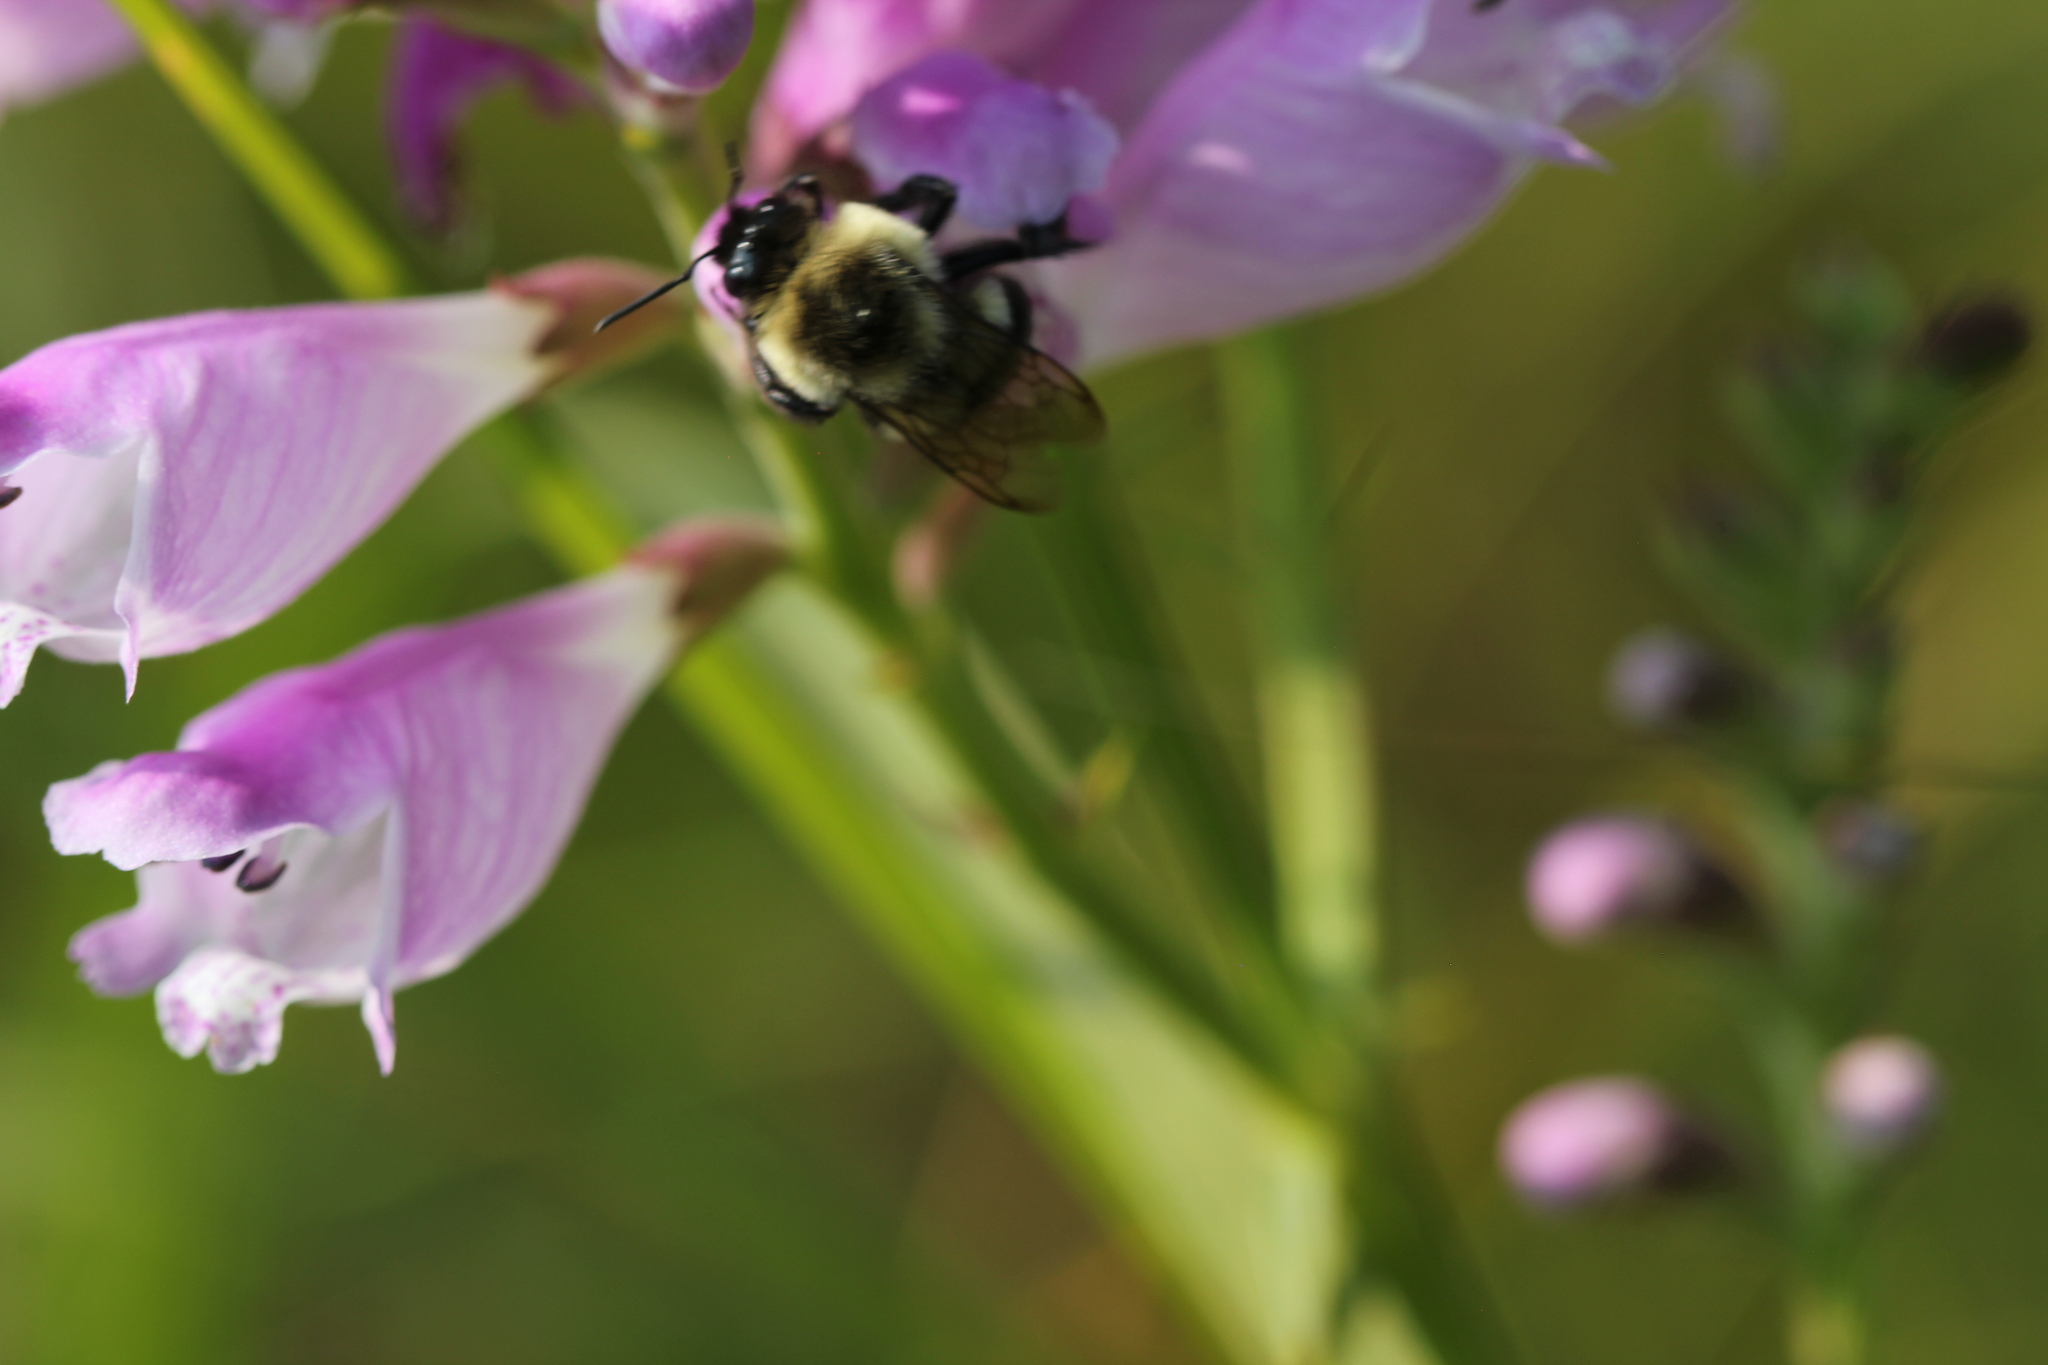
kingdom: Animalia
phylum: Arthropoda
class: Insecta
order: Hymenoptera
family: Apidae
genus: Bombus
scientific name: Bombus impatiens
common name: Common eastern bumble bee
